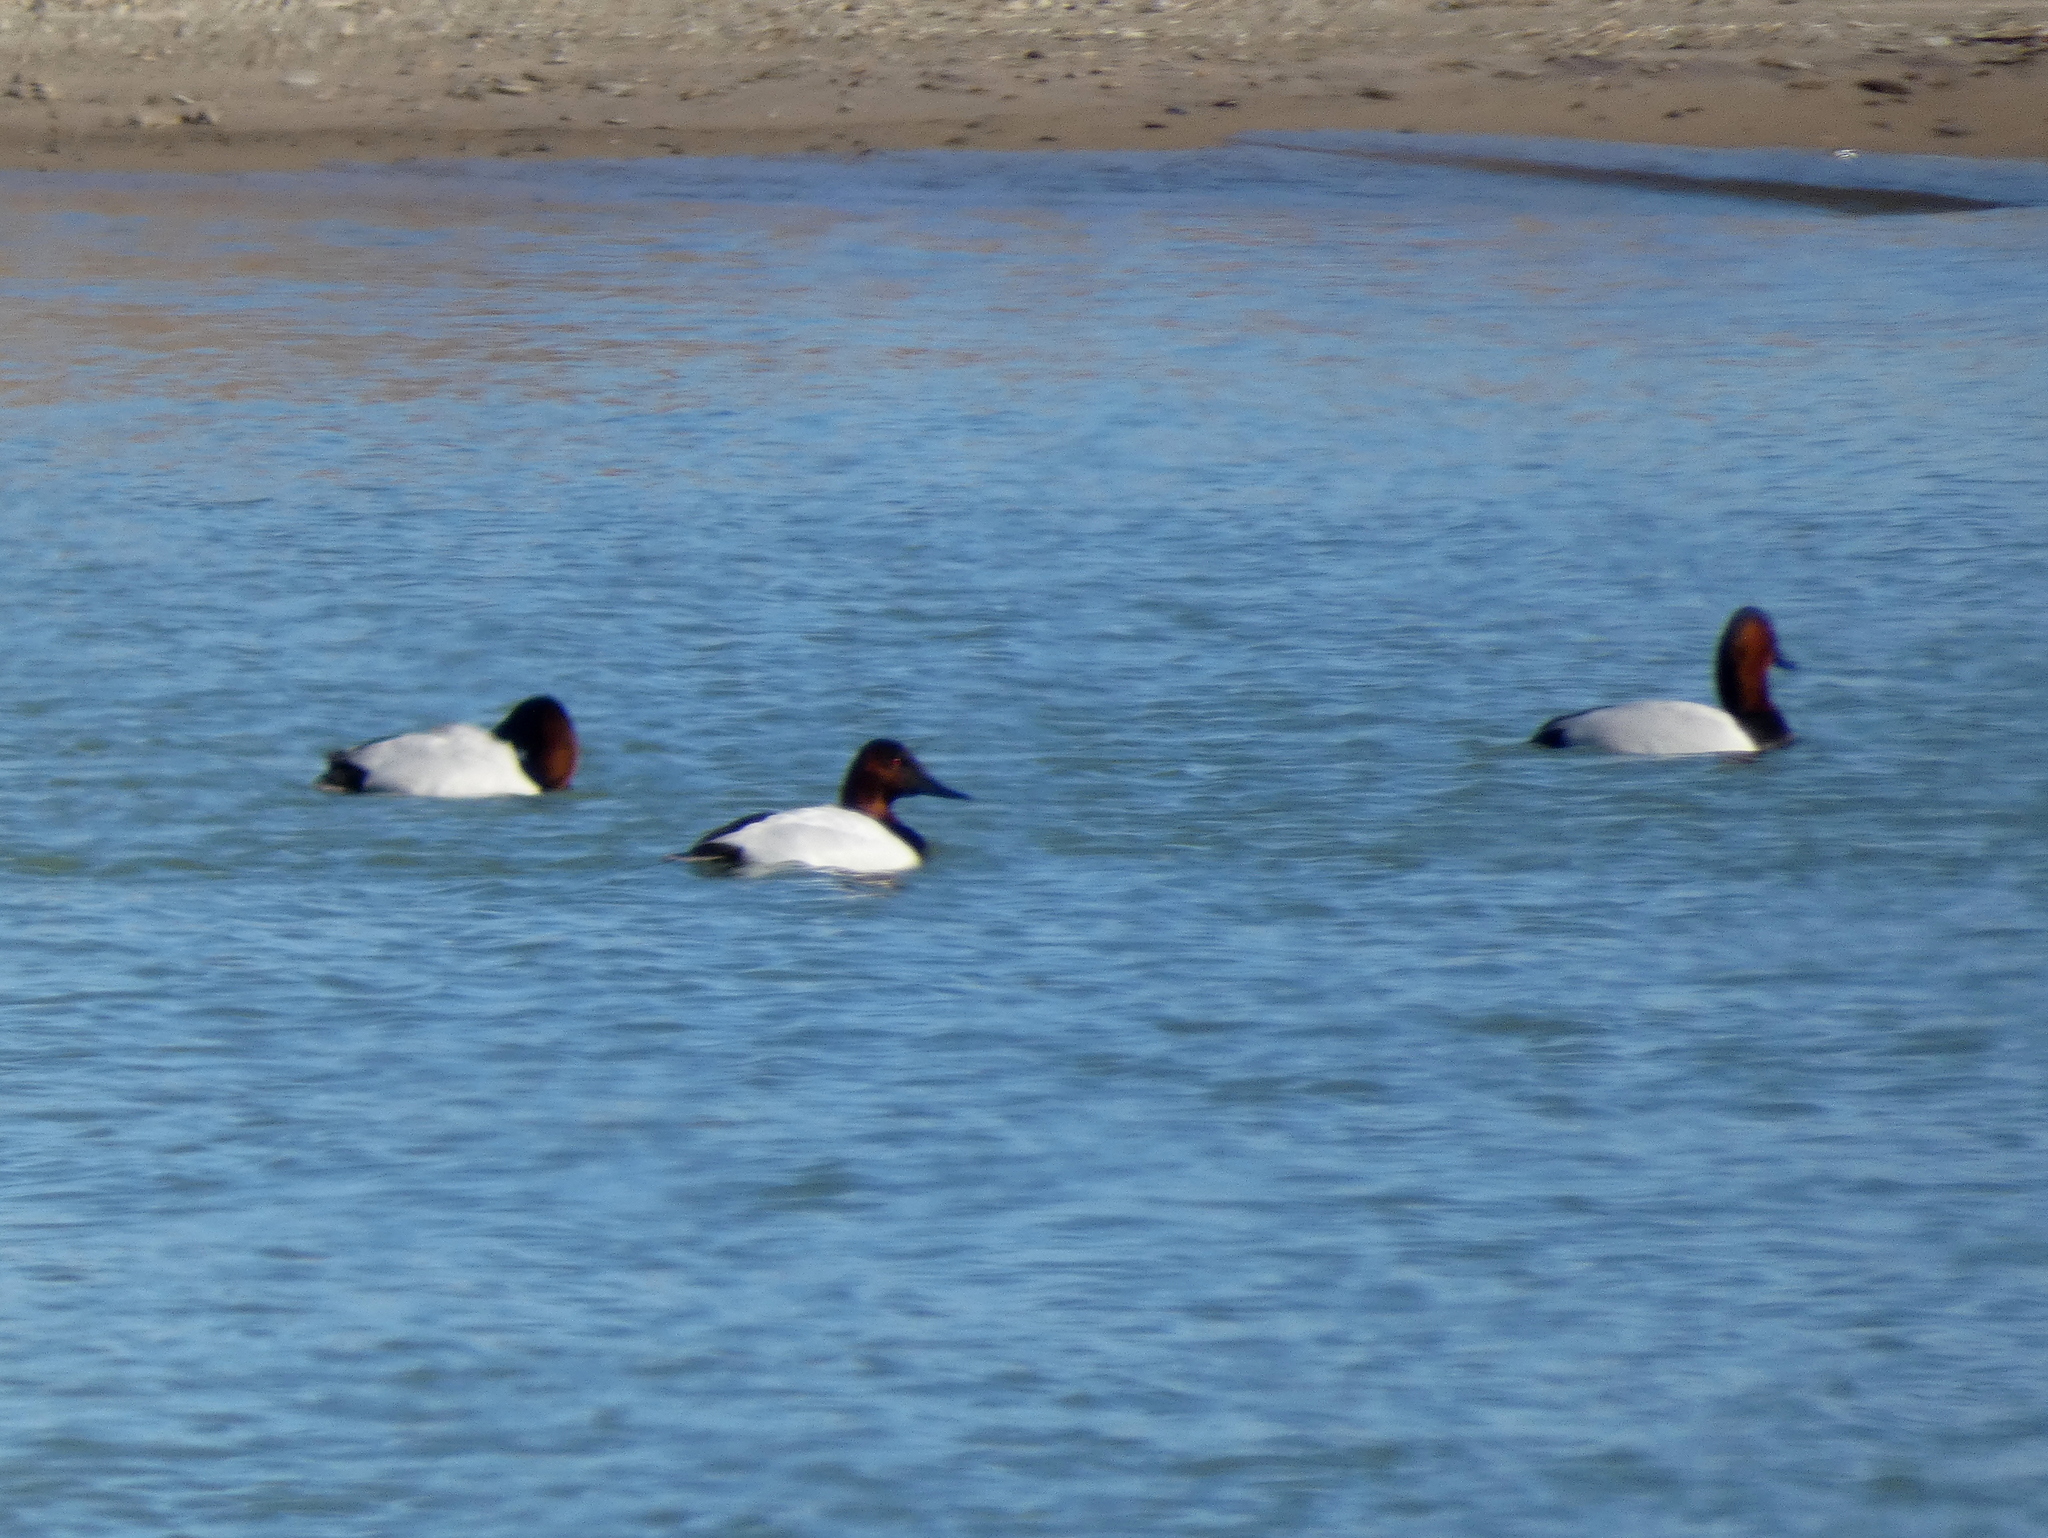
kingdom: Animalia
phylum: Chordata
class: Aves
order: Anseriformes
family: Anatidae
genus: Aythya
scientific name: Aythya valisineria
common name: Canvasback
